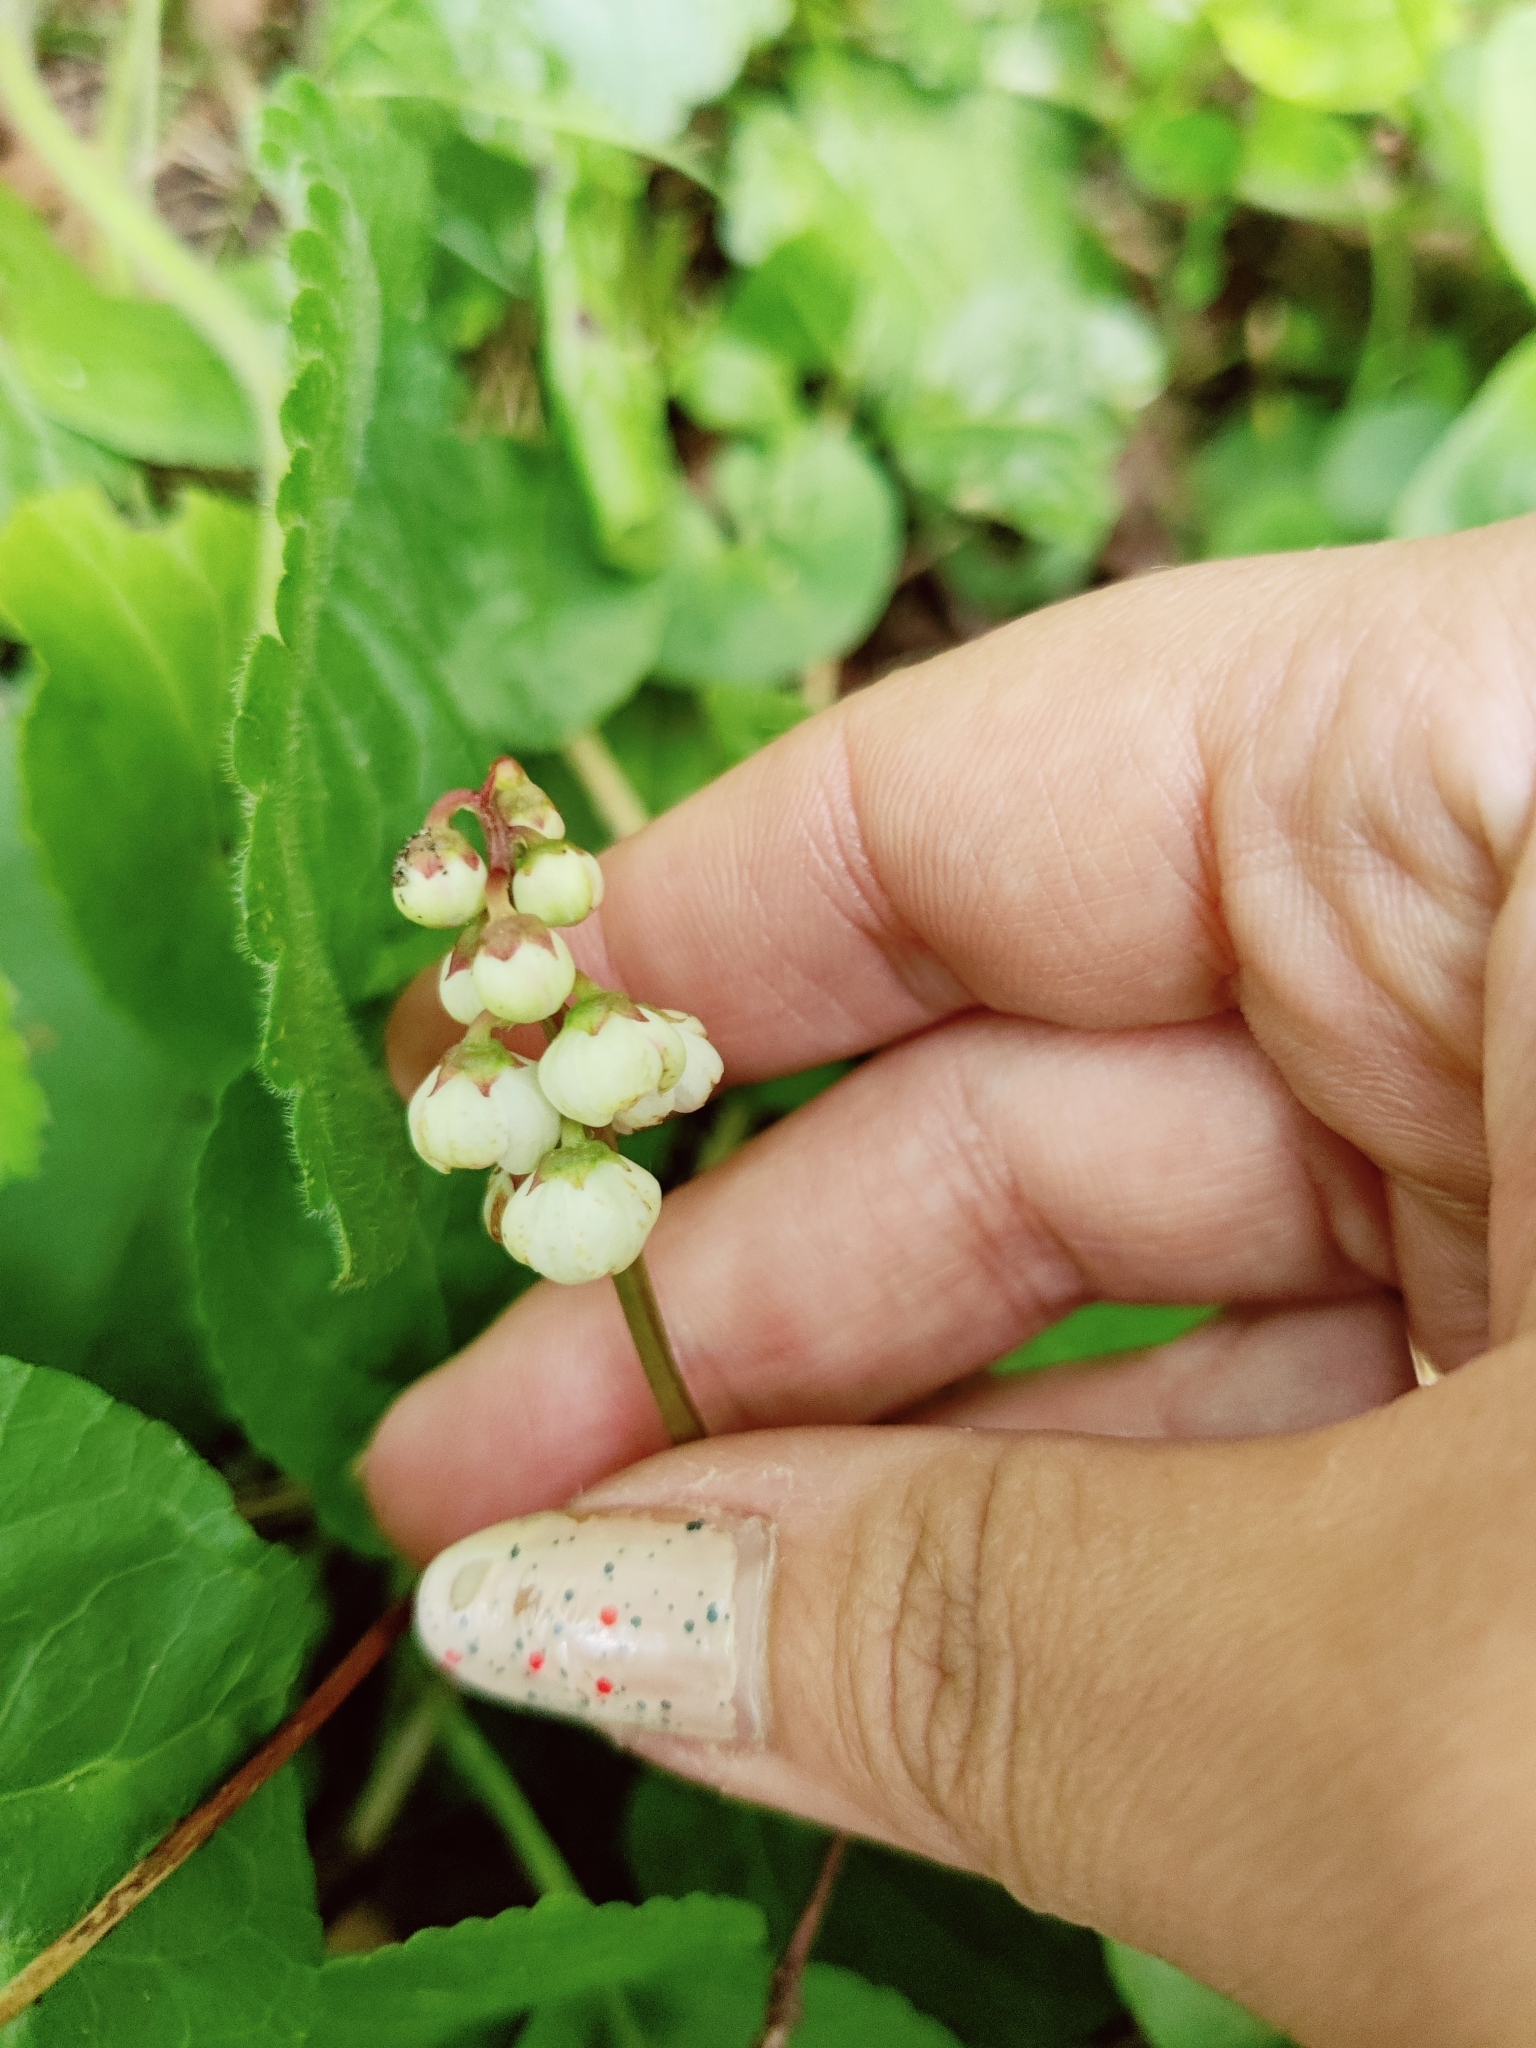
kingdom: Plantae
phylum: Tracheophyta
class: Magnoliopsida
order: Ericales
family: Ericaceae
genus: Pyrola
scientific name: Pyrola minor
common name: Common wintergreen
